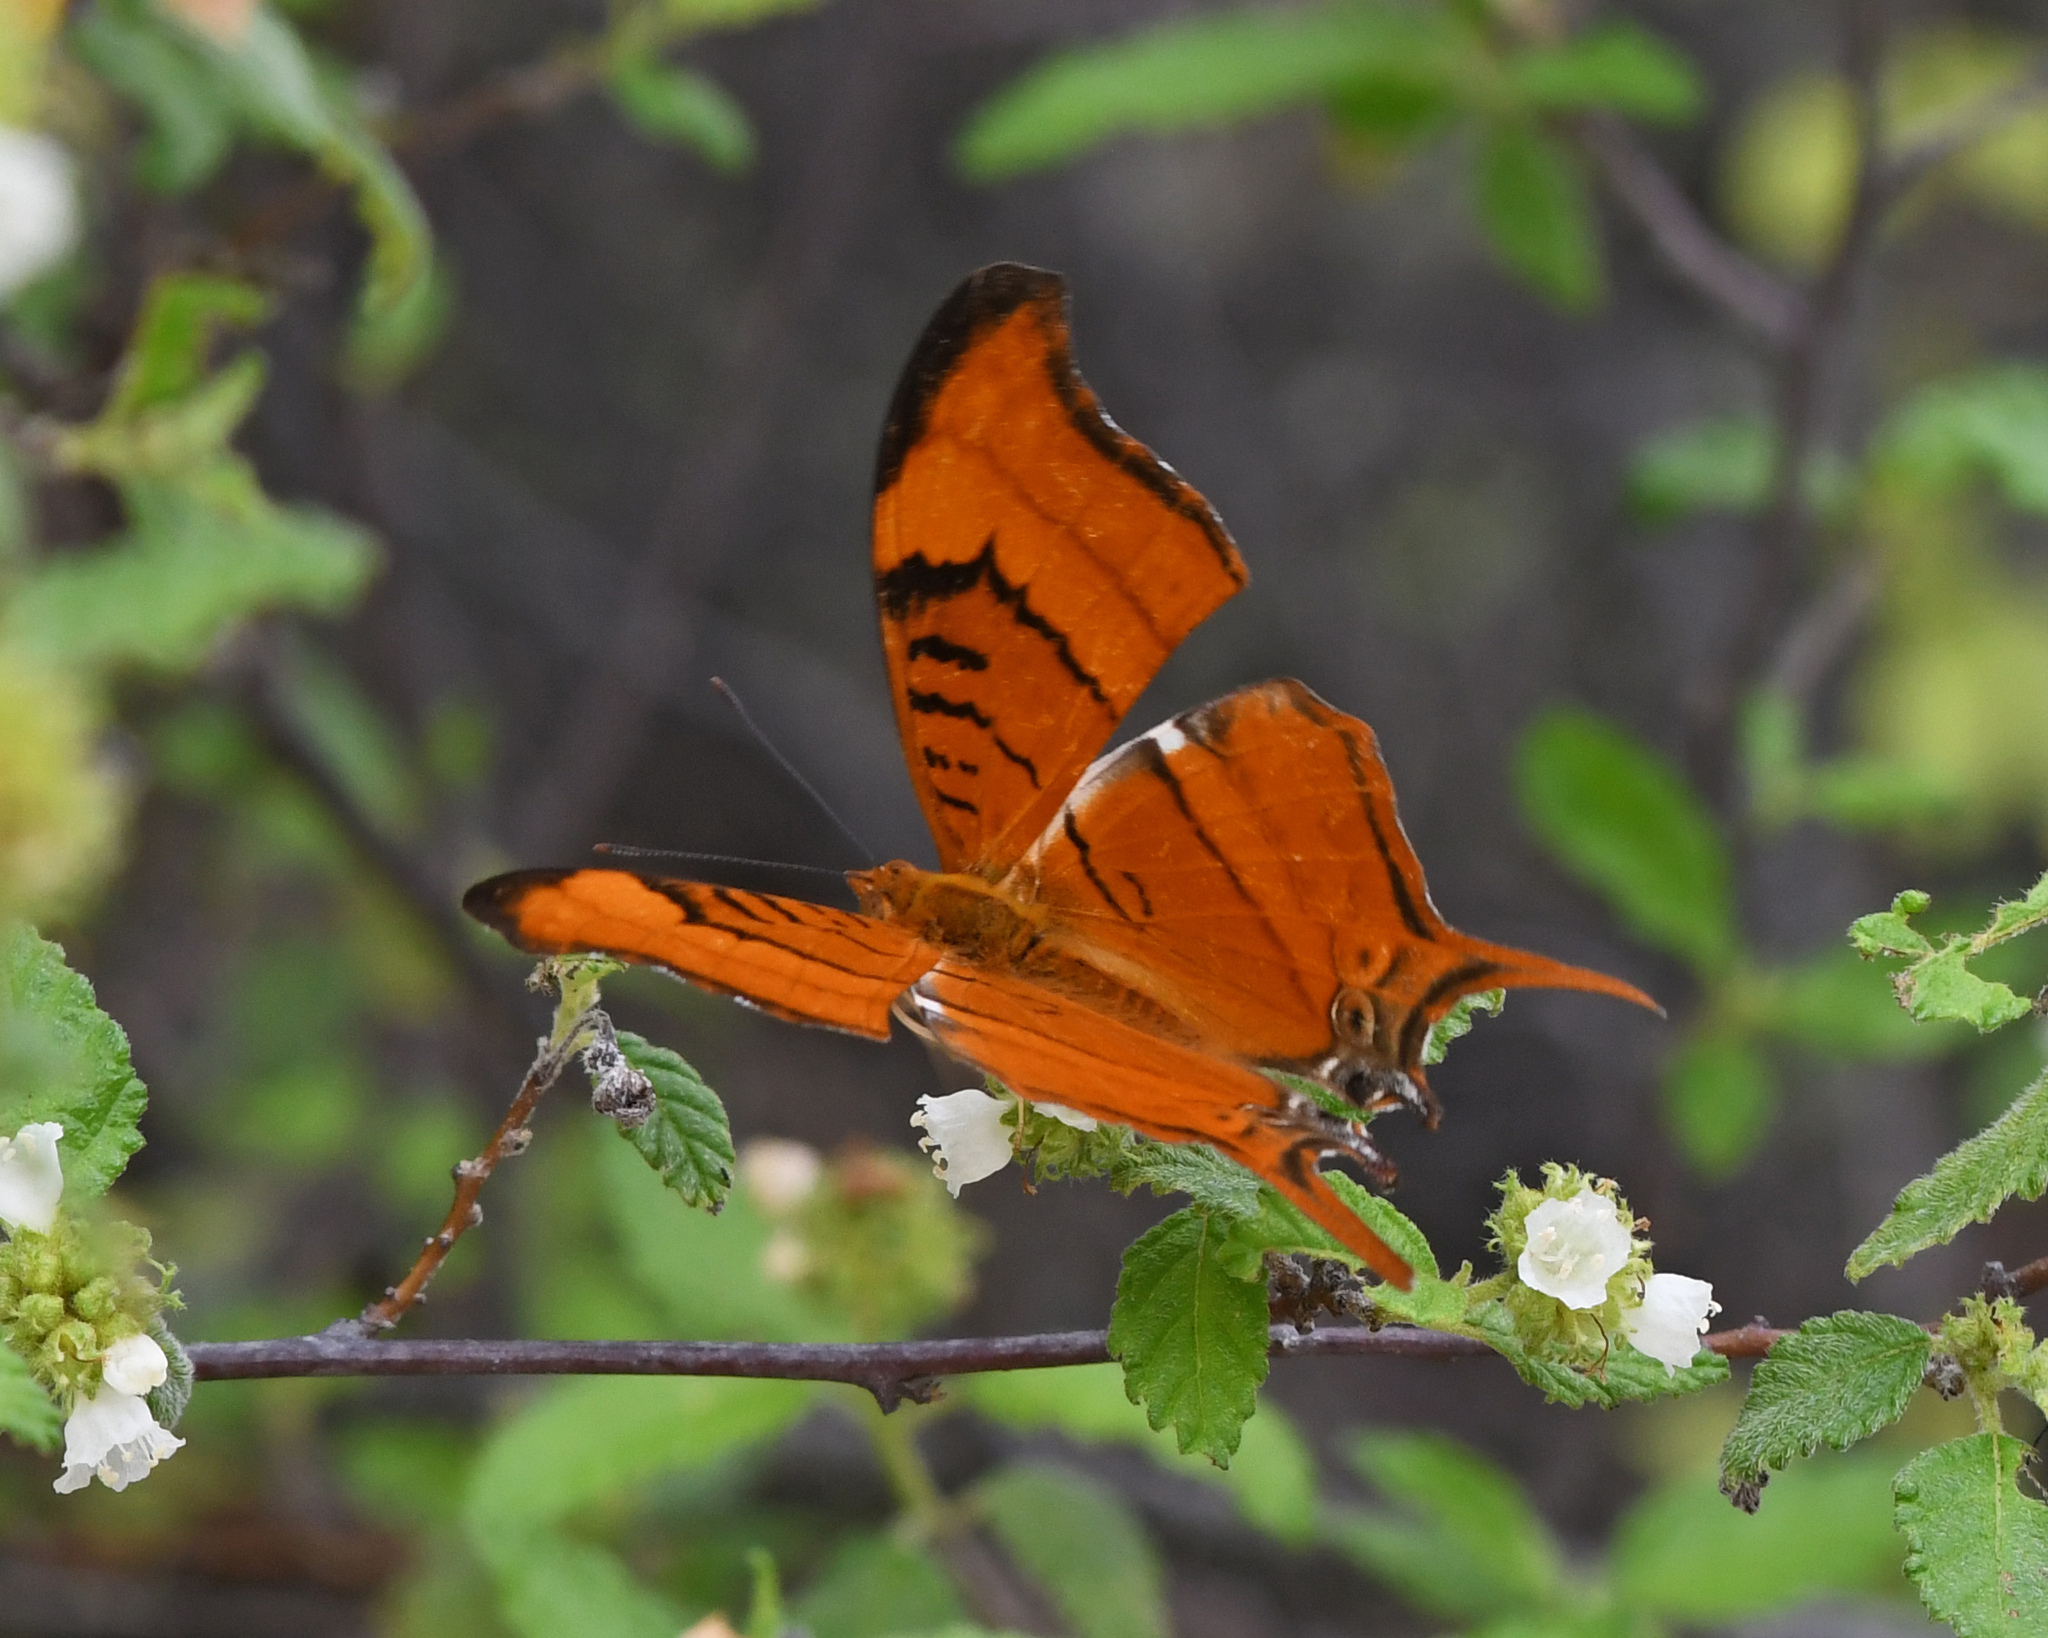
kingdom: Animalia
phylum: Arthropoda
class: Insecta
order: Lepidoptera
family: Nymphalidae
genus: Marpesia
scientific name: Marpesia eleuchea
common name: Antillean daggerwing
